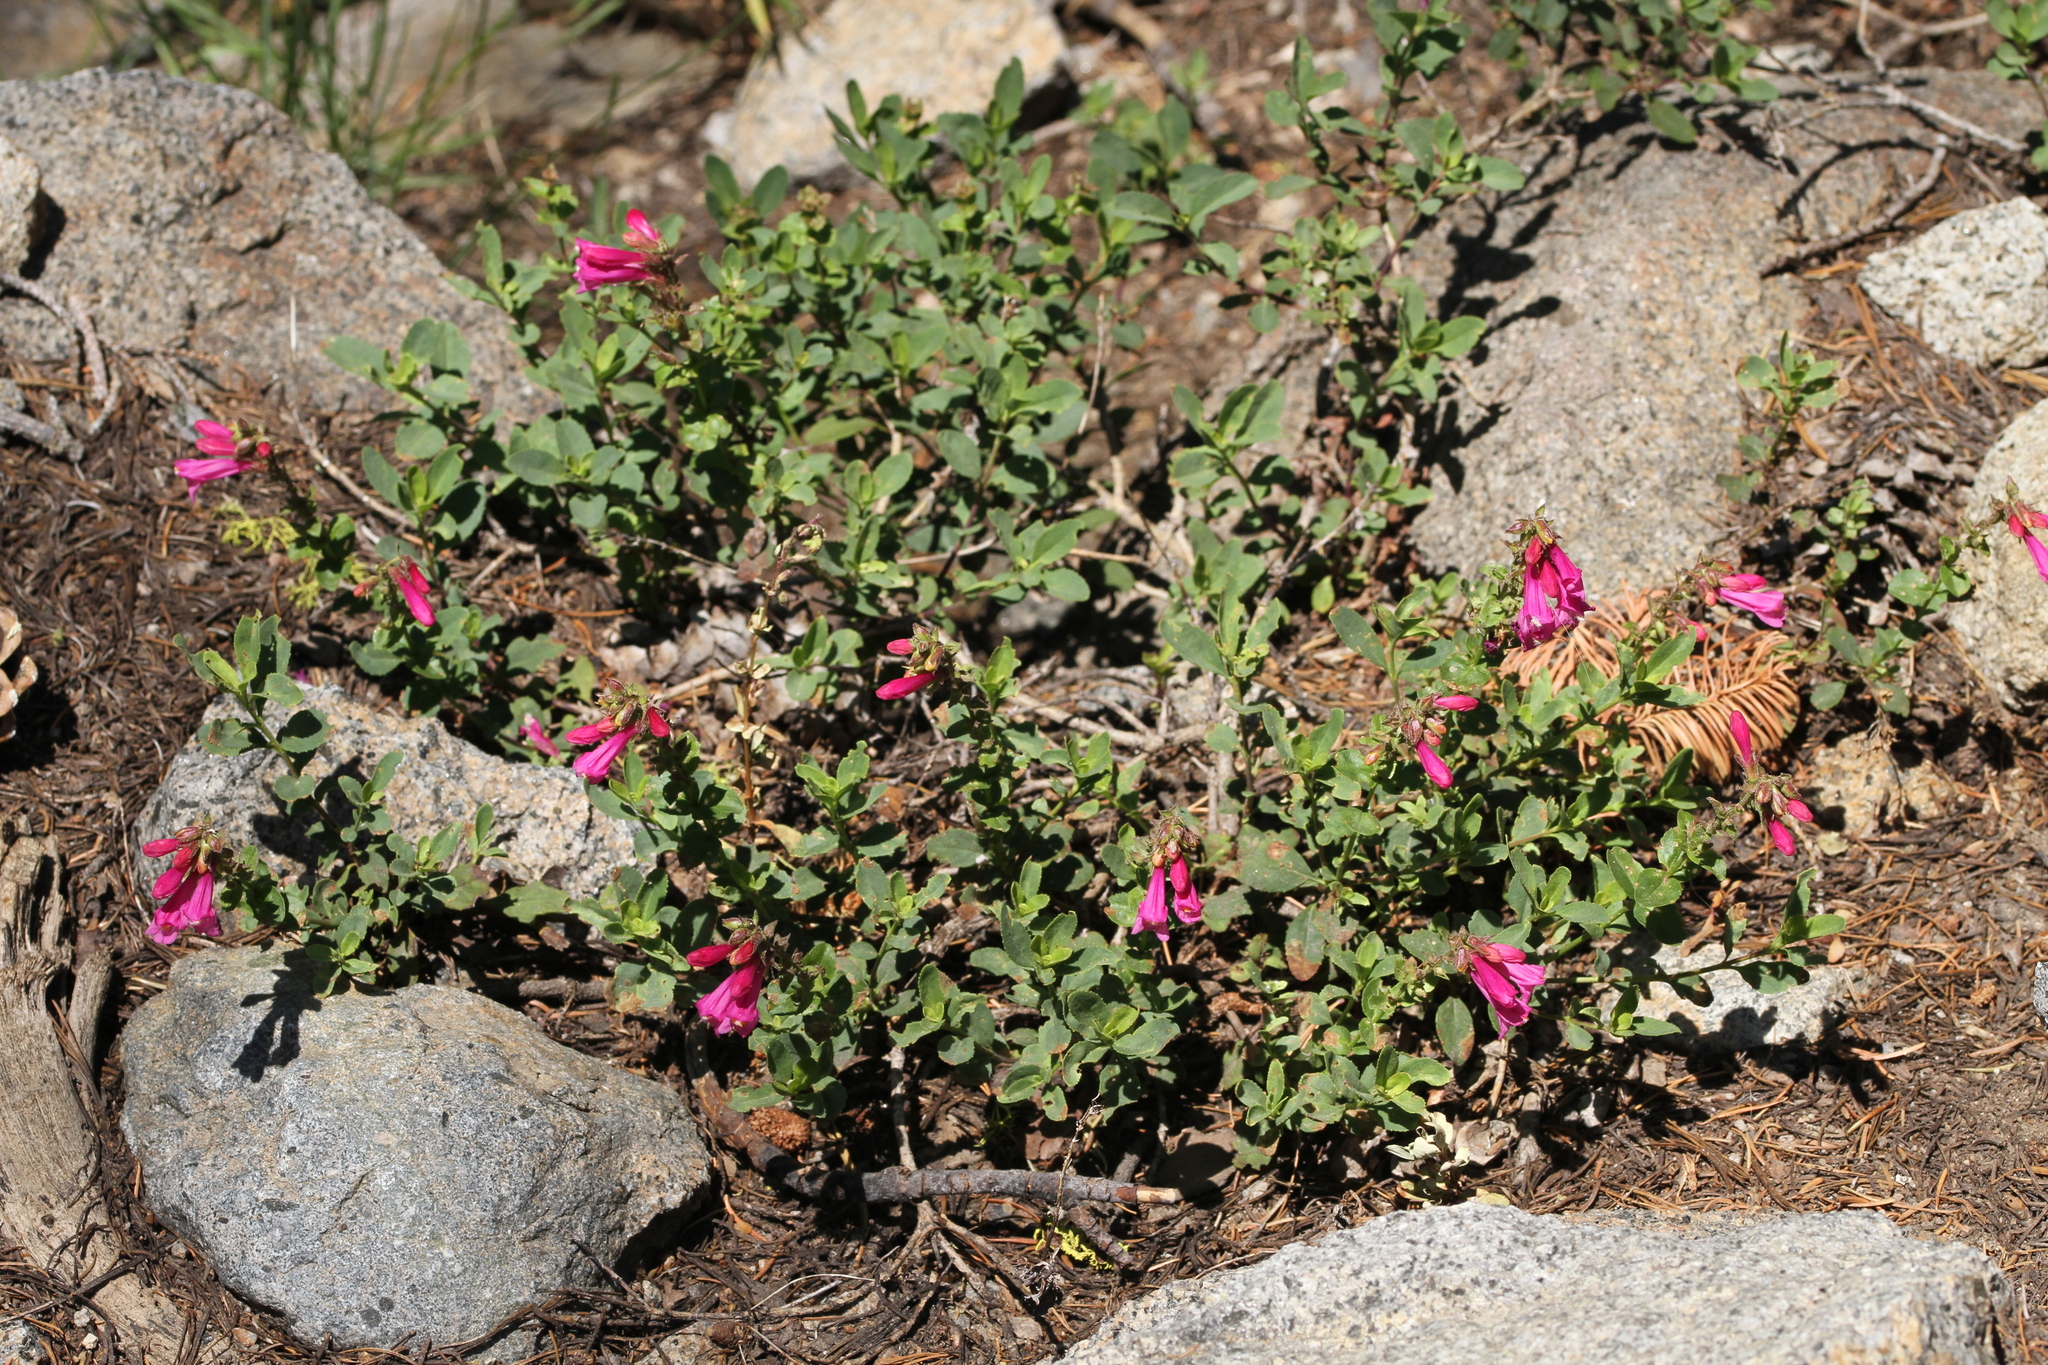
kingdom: Plantae
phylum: Tracheophyta
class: Magnoliopsida
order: Lamiales
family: Plantaginaceae
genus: Penstemon
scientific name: Penstemon newberryi
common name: Mountain-pride
